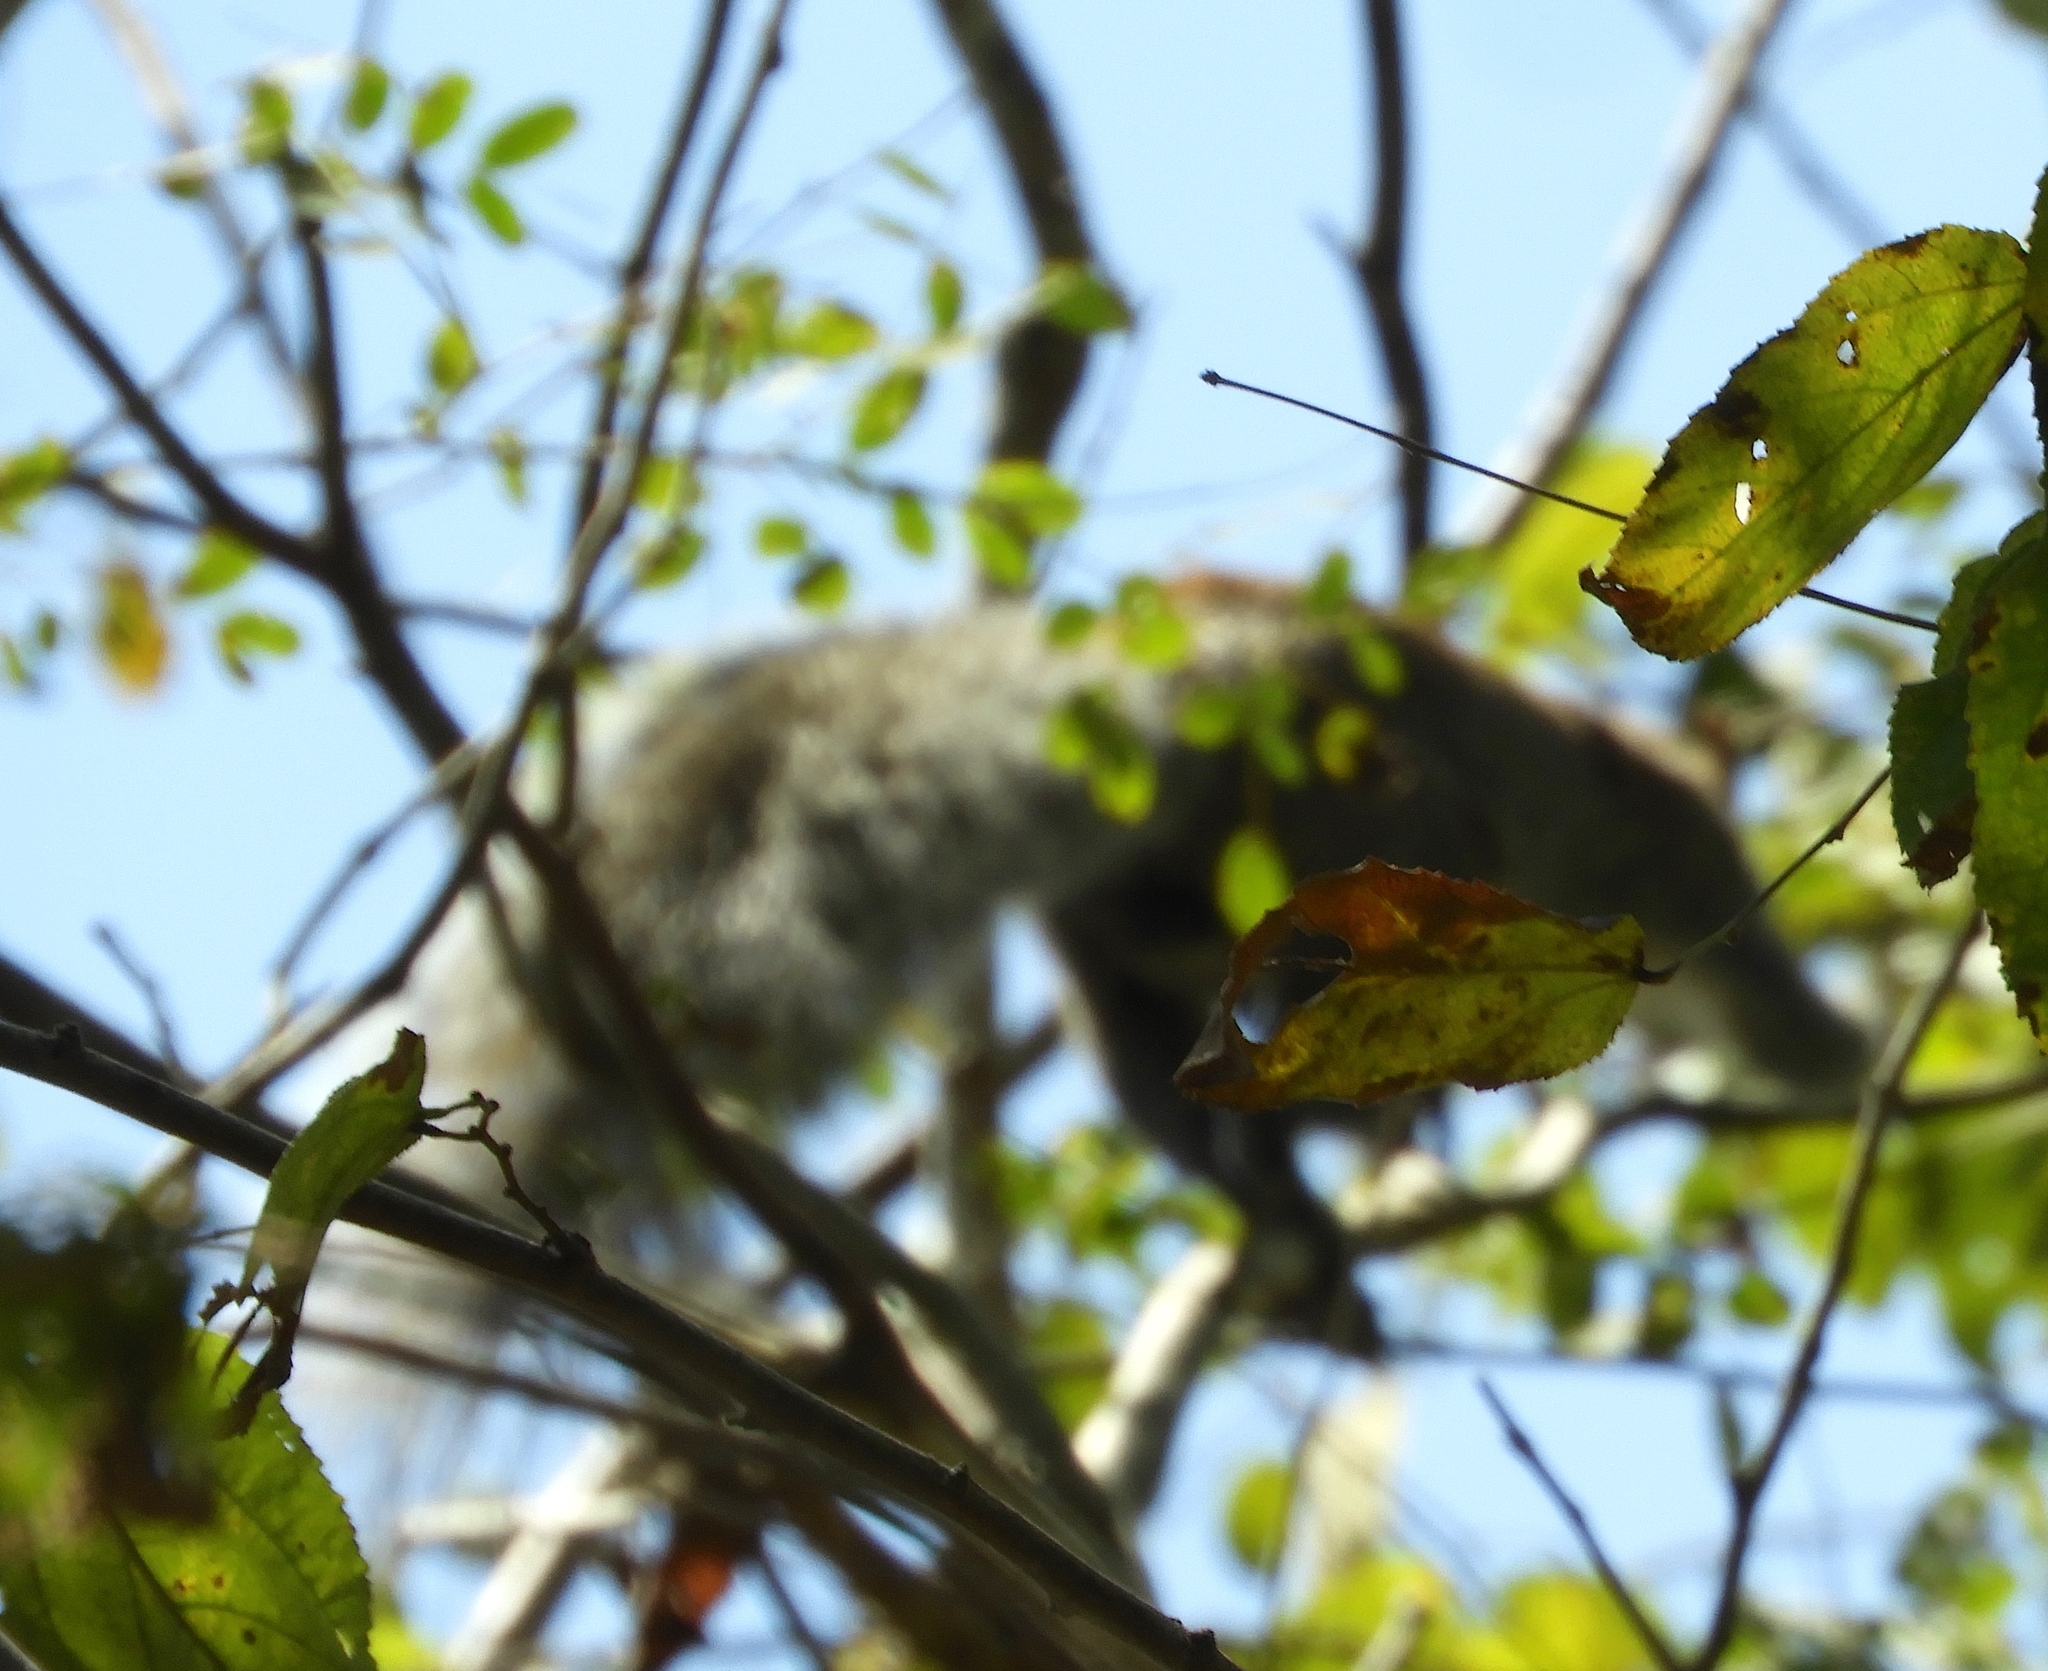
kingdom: Animalia
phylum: Chordata
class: Mammalia
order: Rodentia
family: Sciuridae
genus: Sciurus
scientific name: Sciurus colliaei
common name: Collie's squirrel
